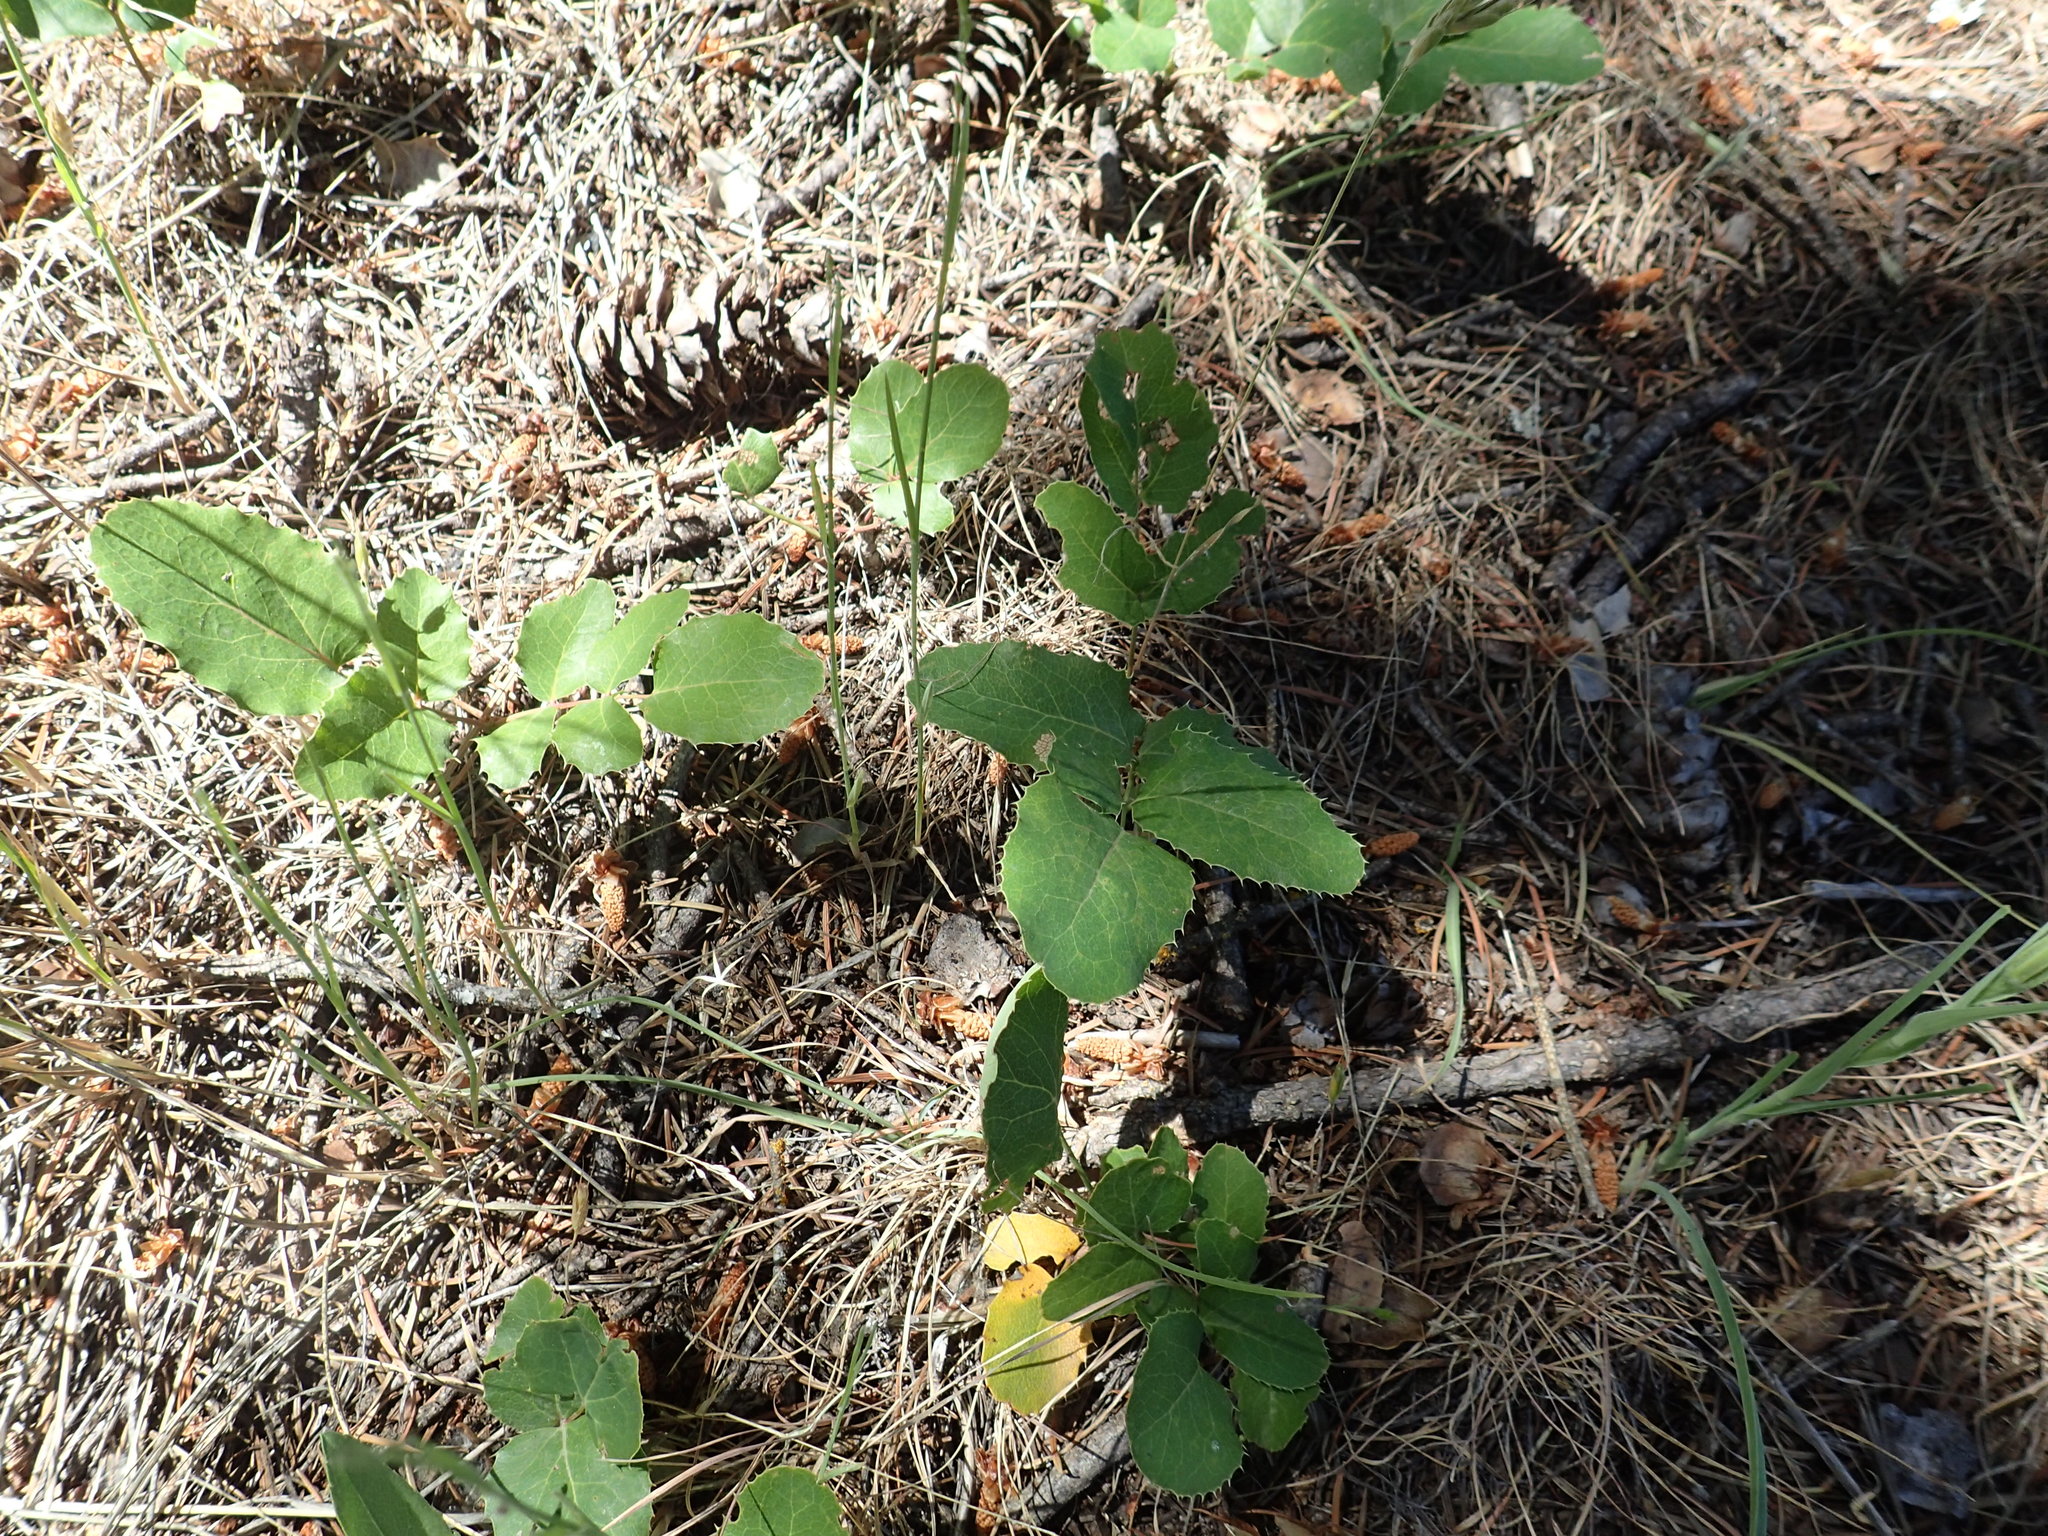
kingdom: Plantae
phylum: Tracheophyta
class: Magnoliopsida
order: Ranunculales
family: Berberidaceae
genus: Mahonia
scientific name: Mahonia repens
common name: Creeping oregon-grape
